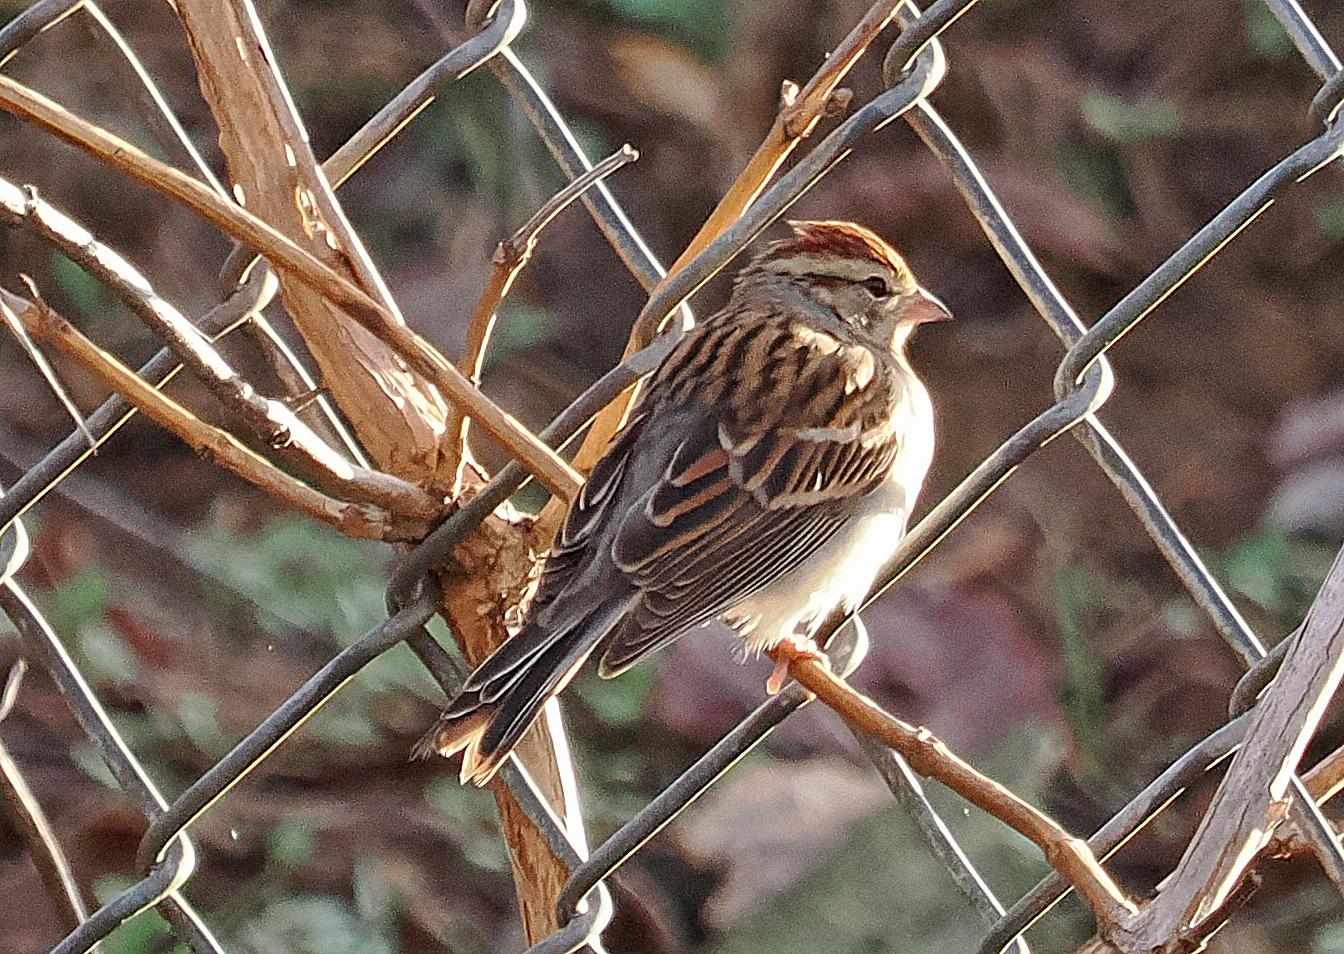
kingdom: Animalia
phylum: Chordata
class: Aves
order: Passeriformes
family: Passerellidae
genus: Spizella
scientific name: Spizella passerina
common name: Chipping sparrow
